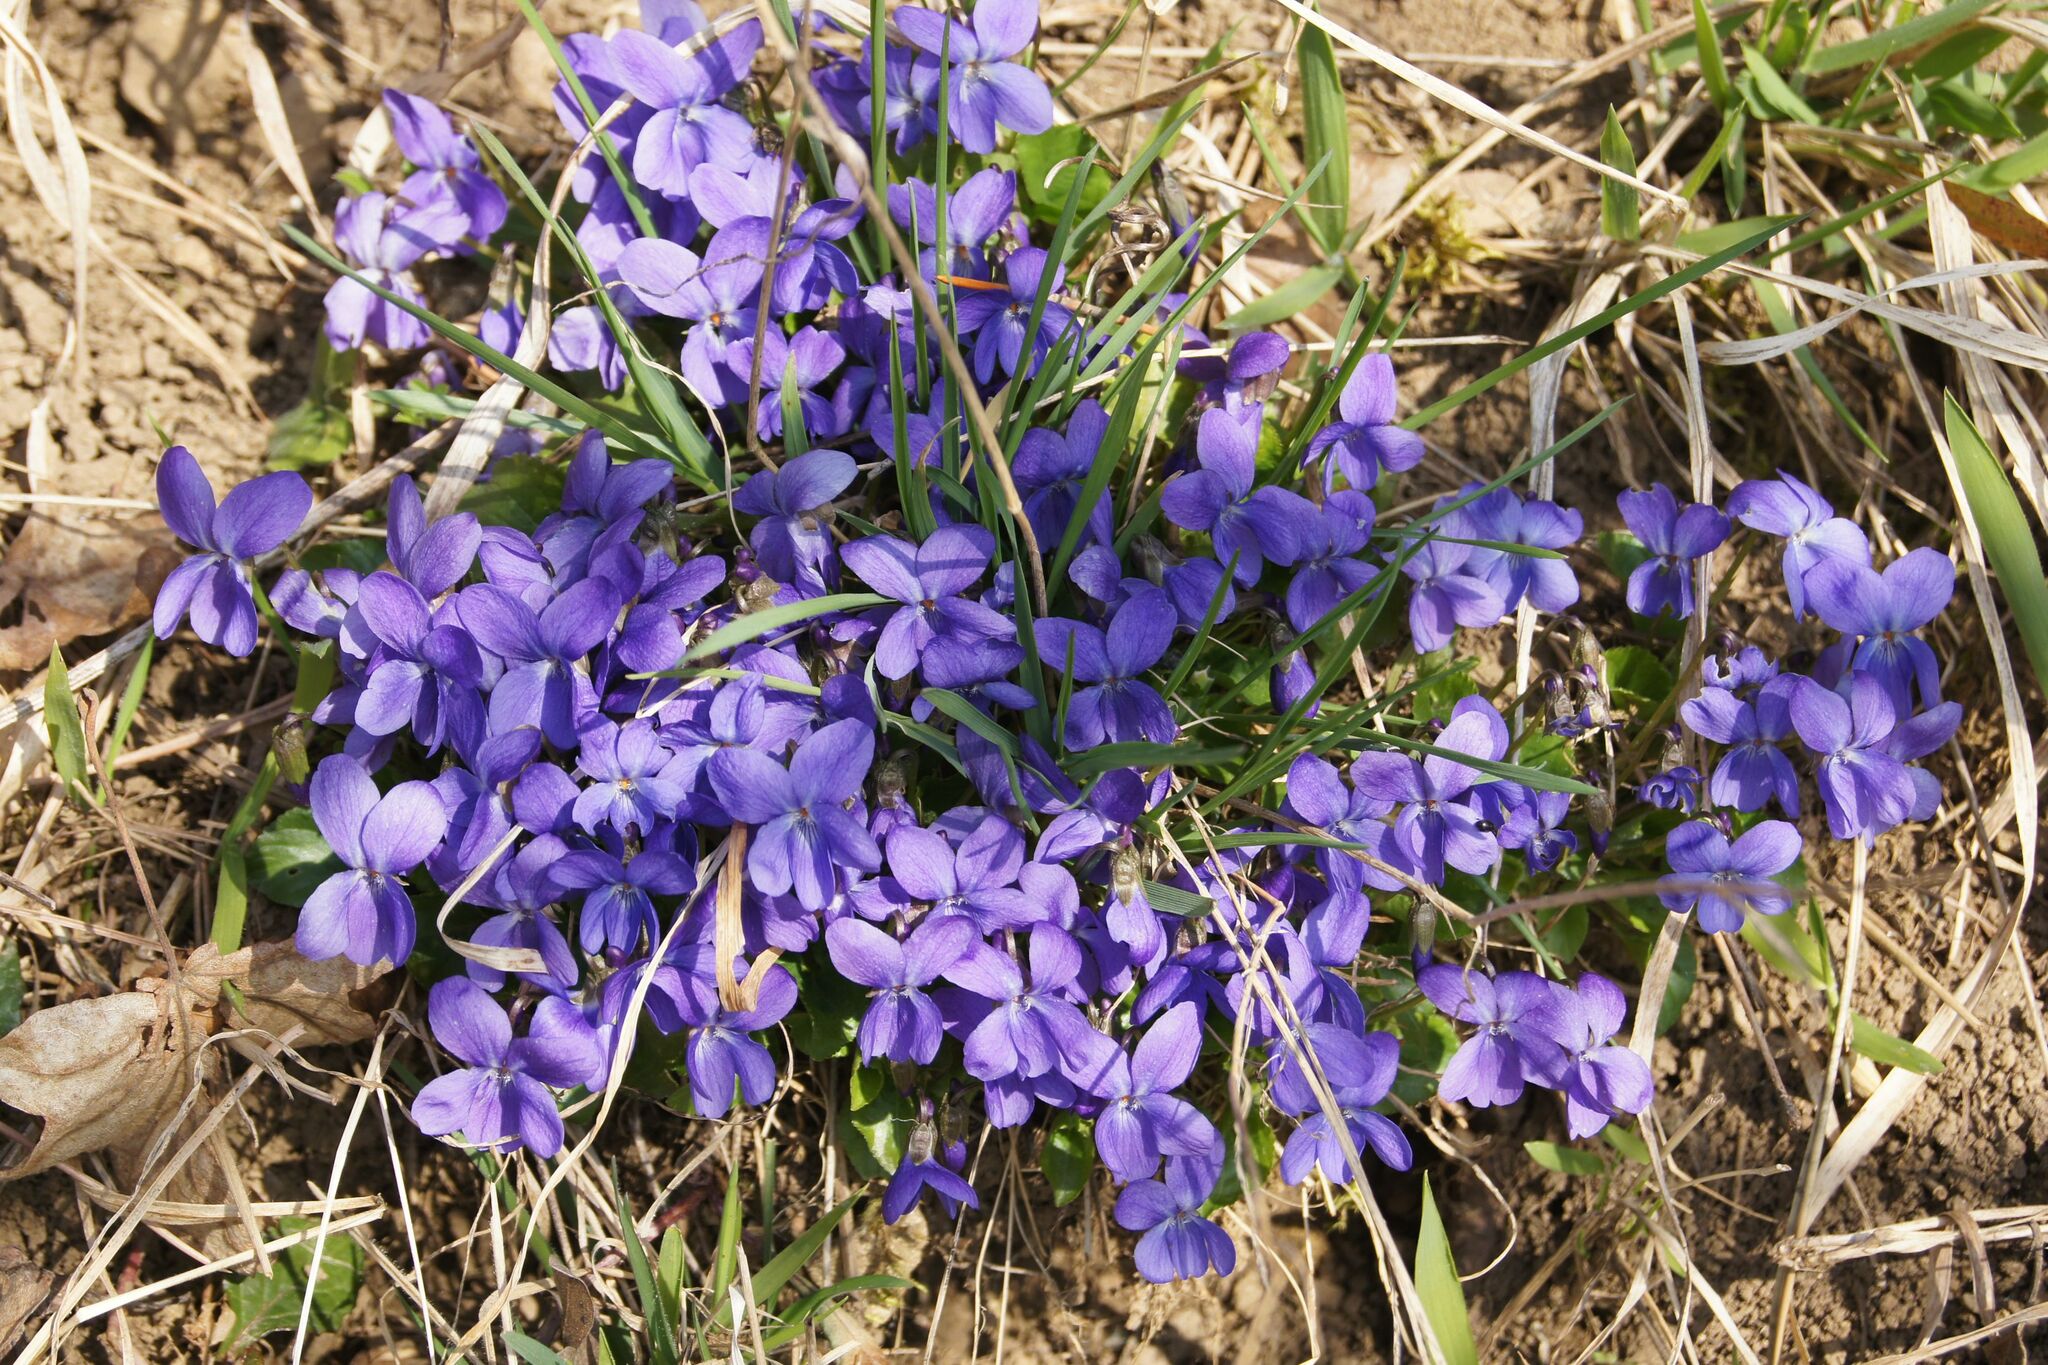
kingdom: Plantae
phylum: Tracheophyta
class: Magnoliopsida
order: Malpighiales
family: Violaceae
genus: Viola
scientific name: Viola odorata
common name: Sweet violet
